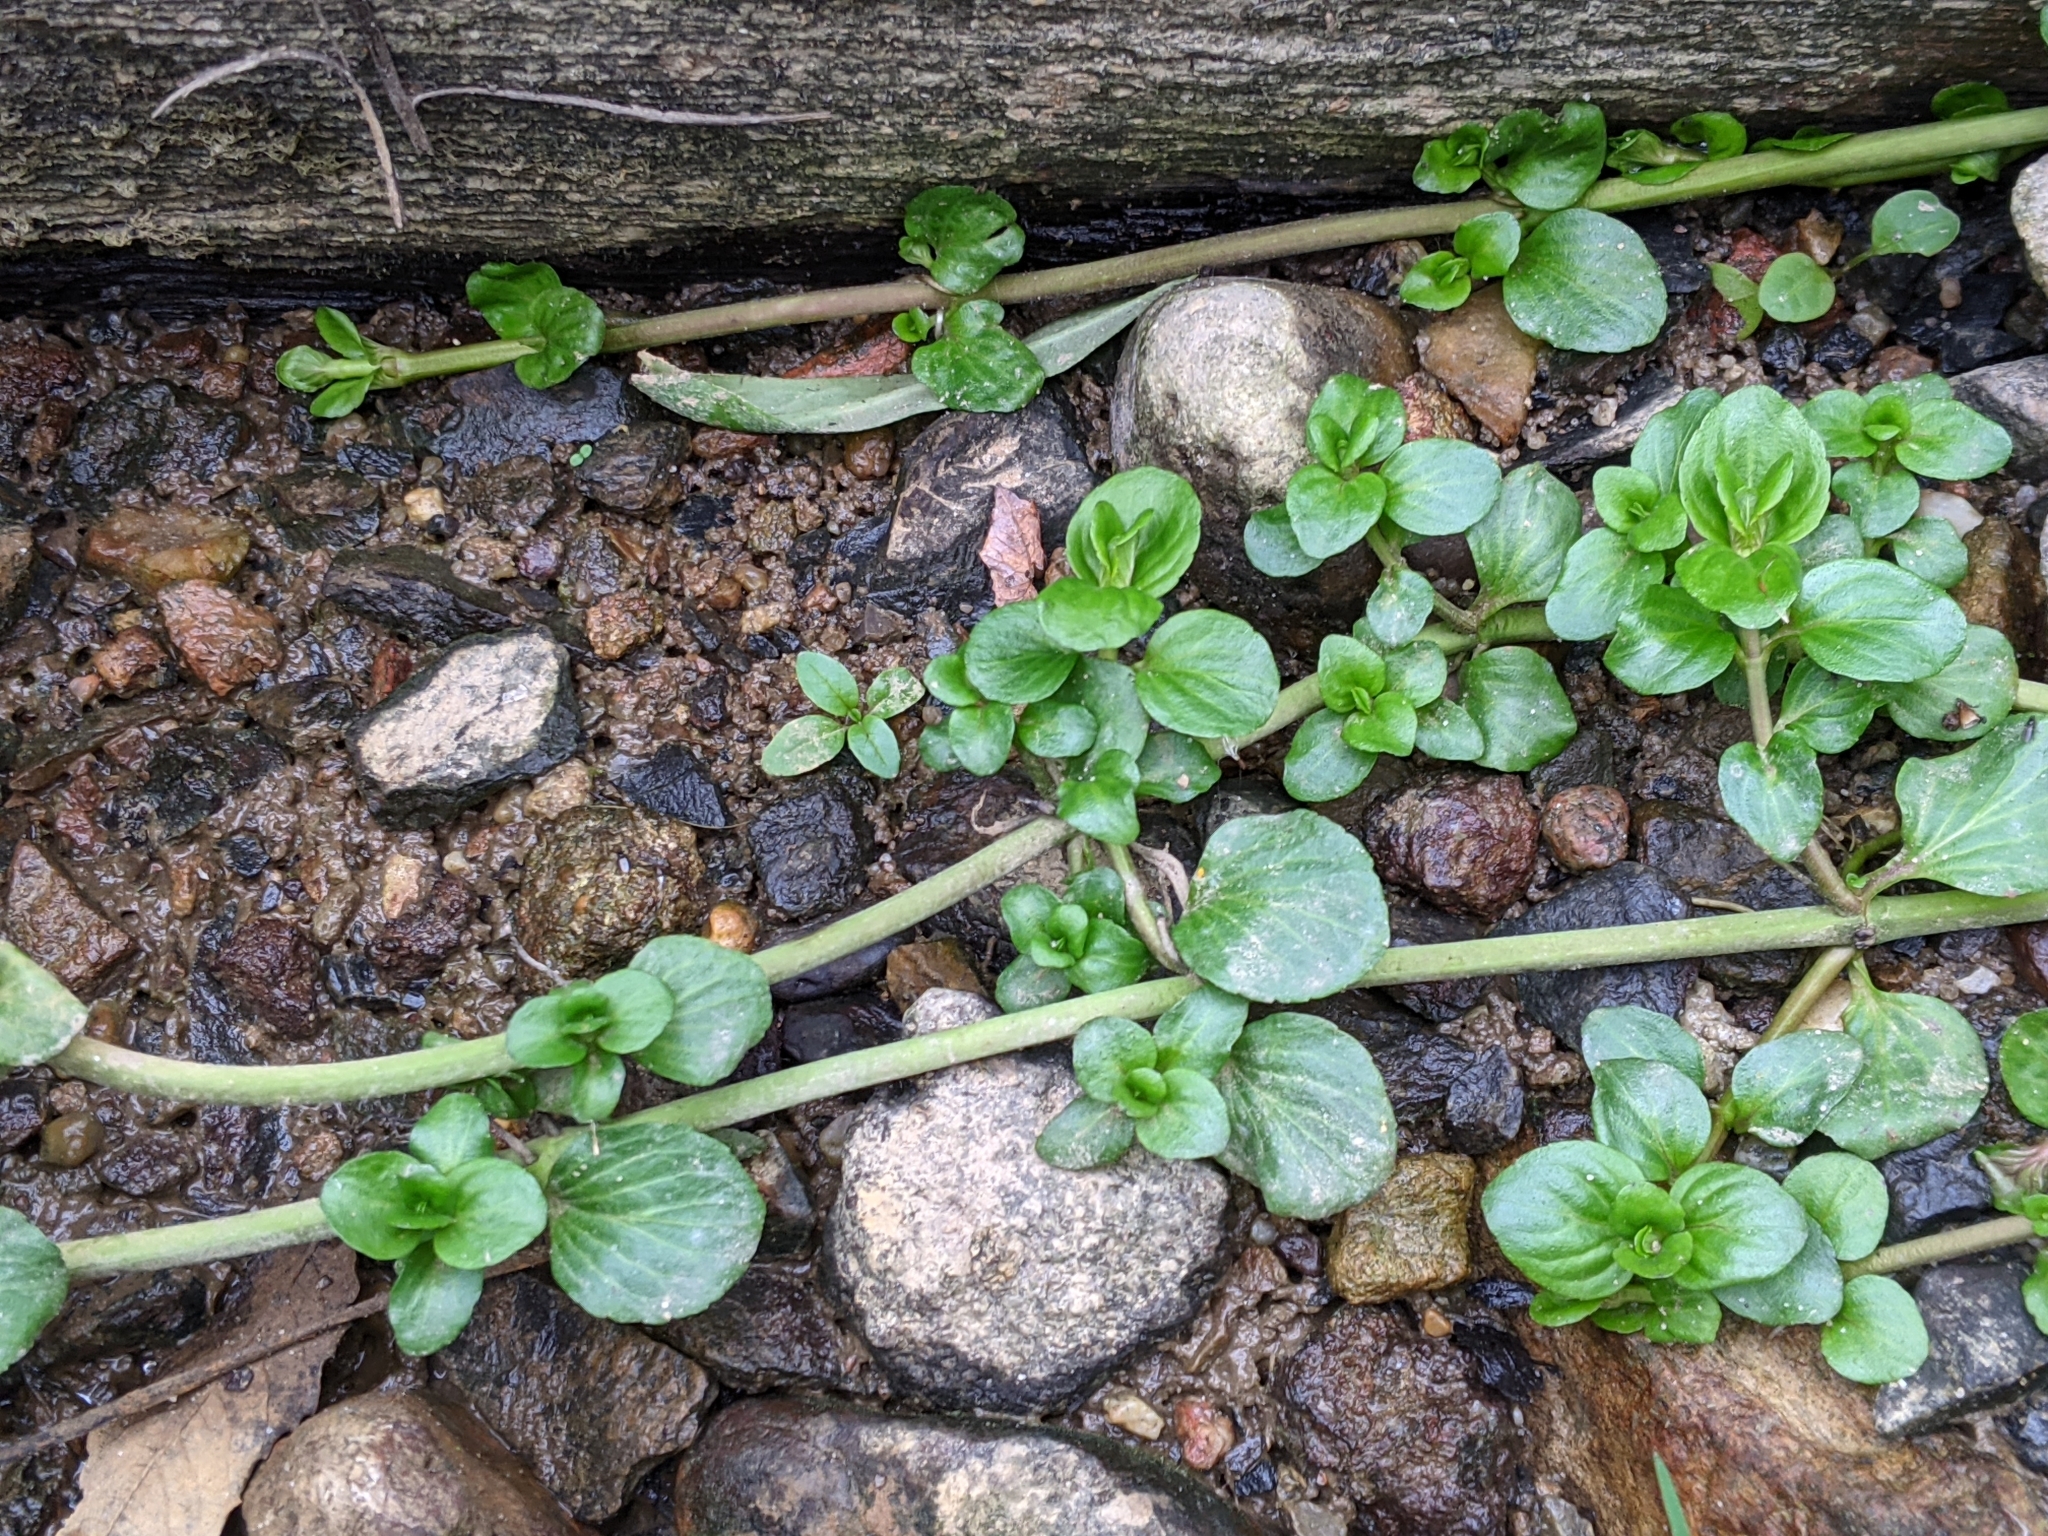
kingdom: Plantae
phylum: Tracheophyta
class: Magnoliopsida
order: Lamiales
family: Plantaginaceae
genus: Veronica
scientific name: Veronica beccabunga
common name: Brooklime
